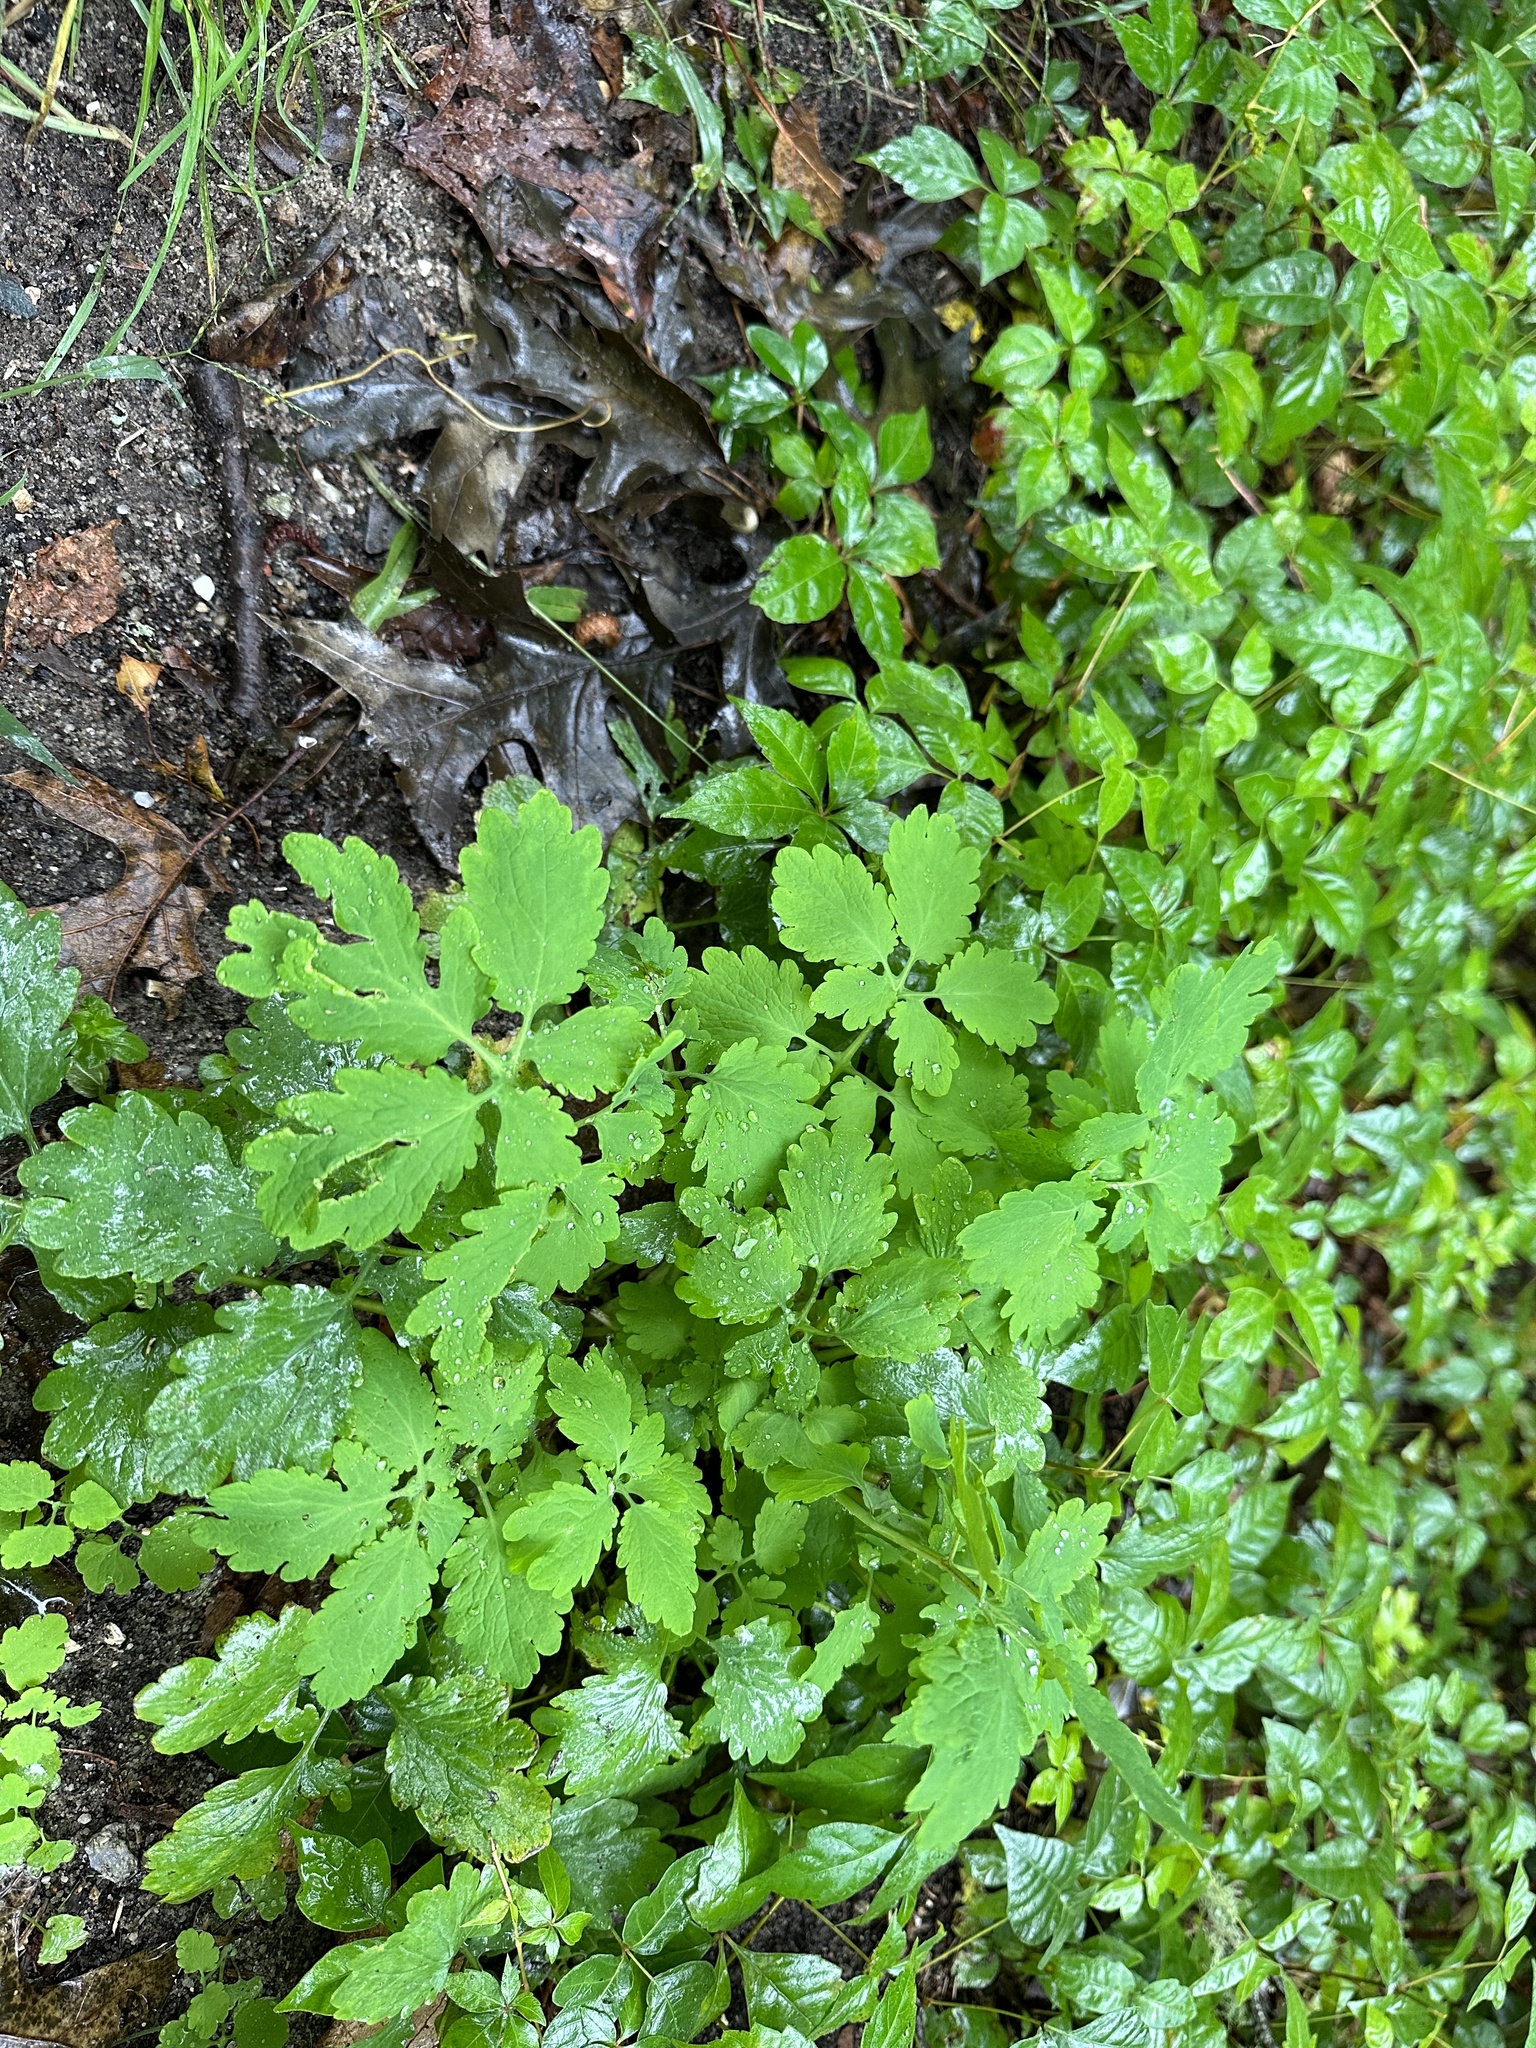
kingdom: Plantae
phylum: Tracheophyta
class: Magnoliopsida
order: Ranunculales
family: Papaveraceae
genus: Chelidonium
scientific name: Chelidonium majus
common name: Greater celandine
